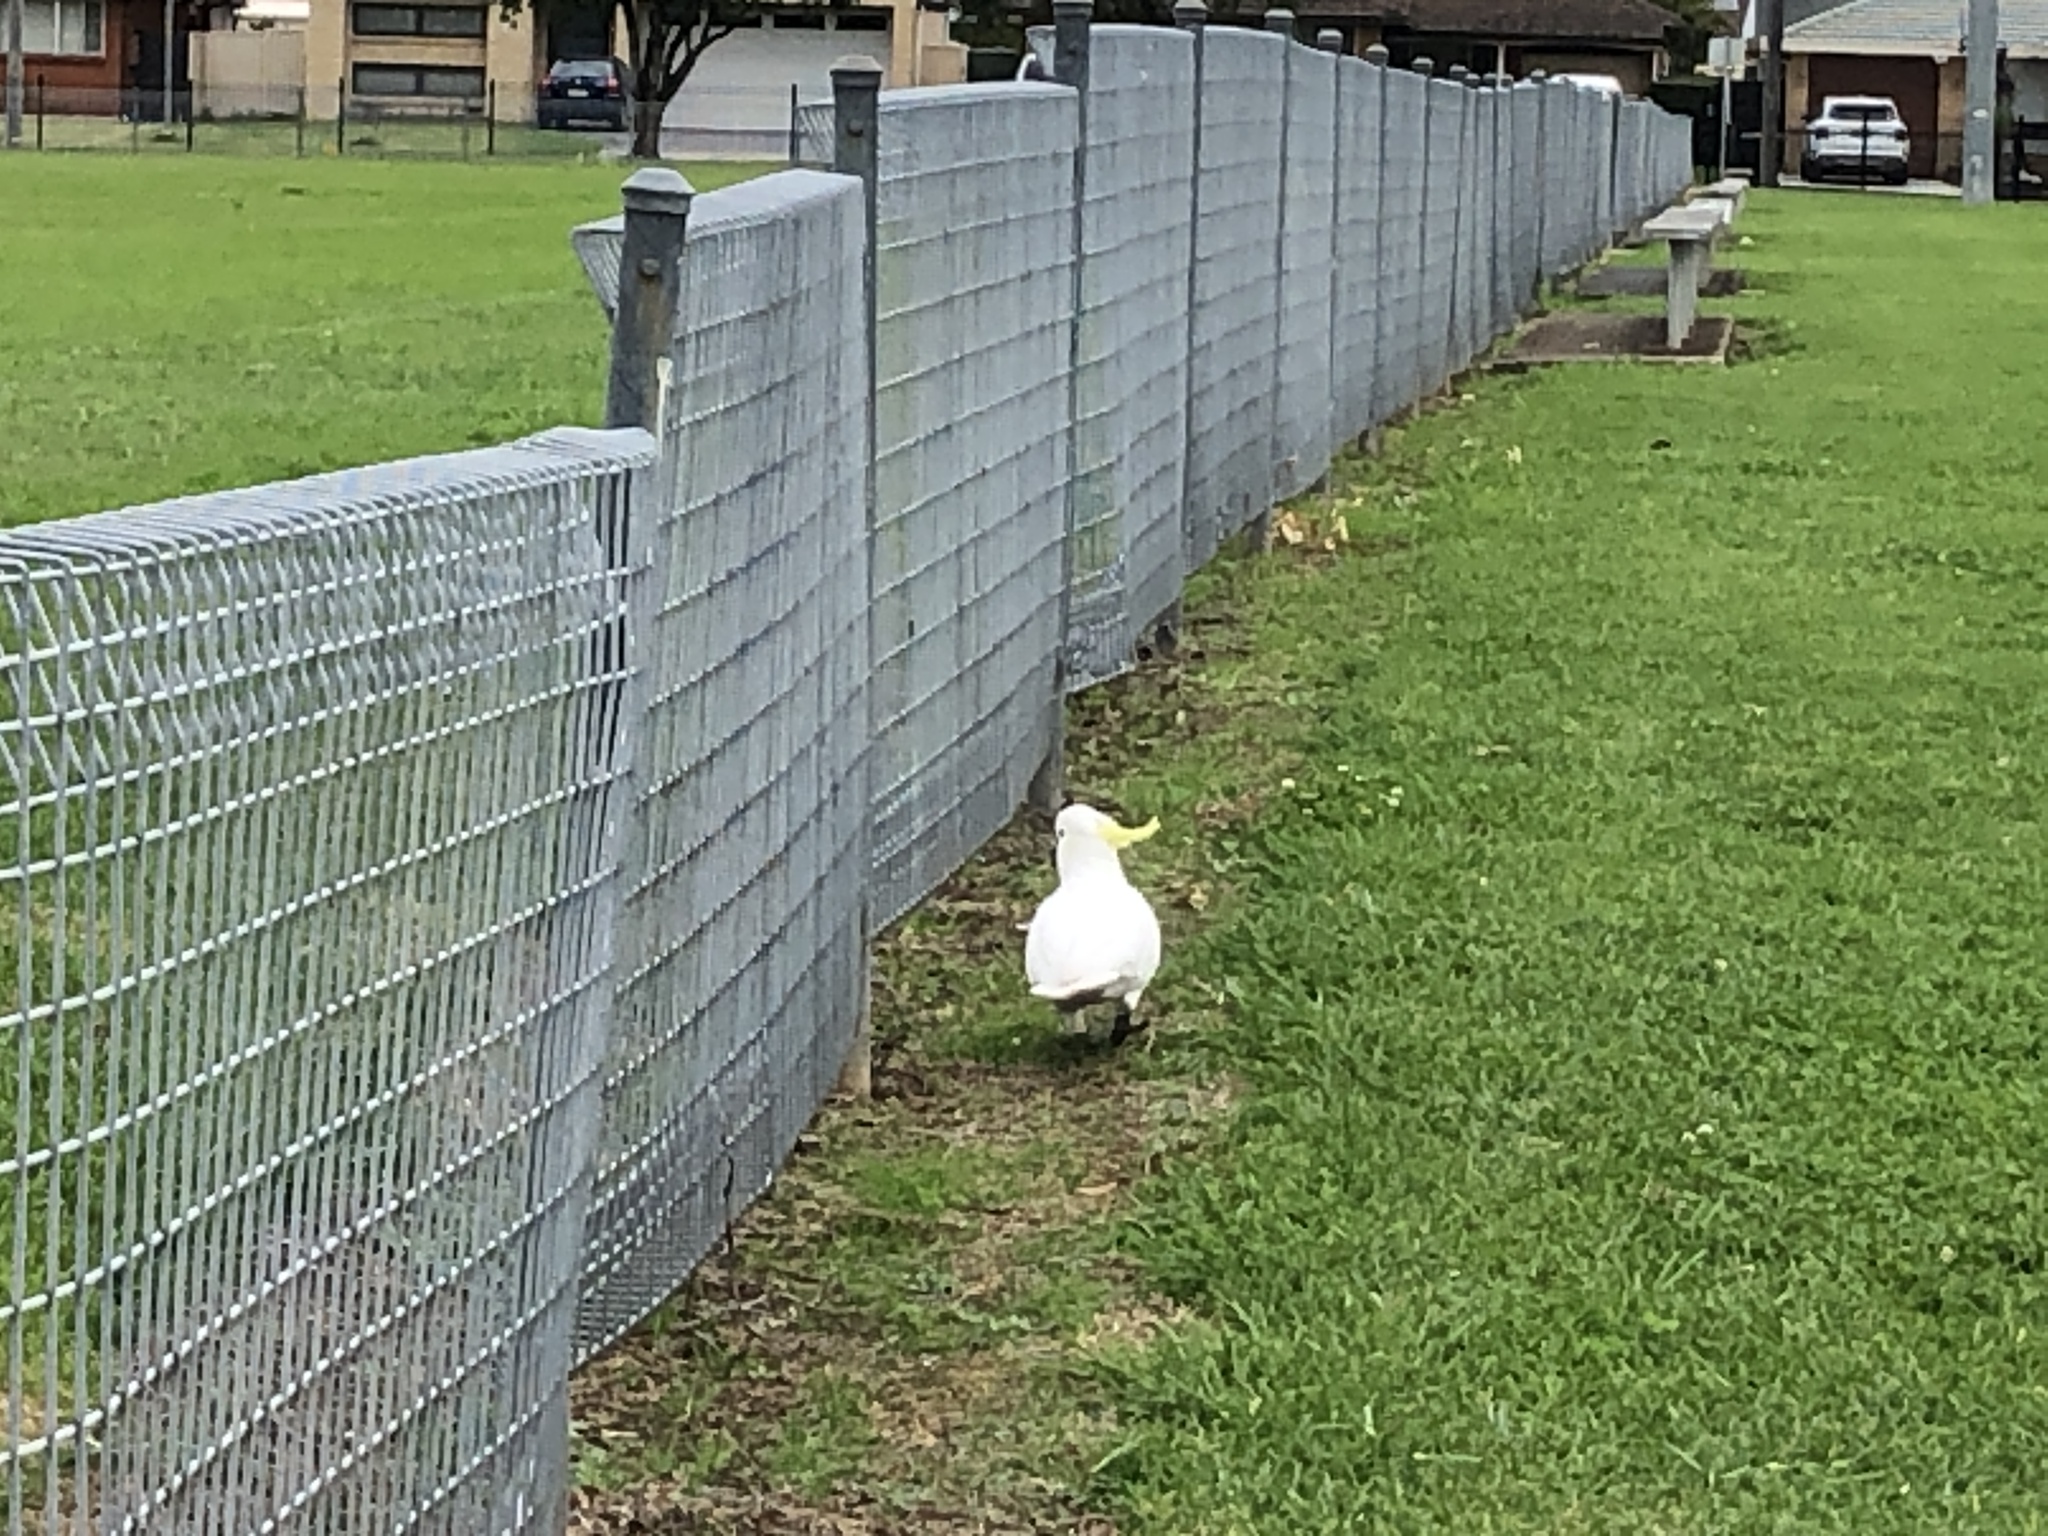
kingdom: Animalia
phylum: Chordata
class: Aves
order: Psittaciformes
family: Psittacidae
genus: Cacatua
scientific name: Cacatua galerita
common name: Sulphur-crested cockatoo
